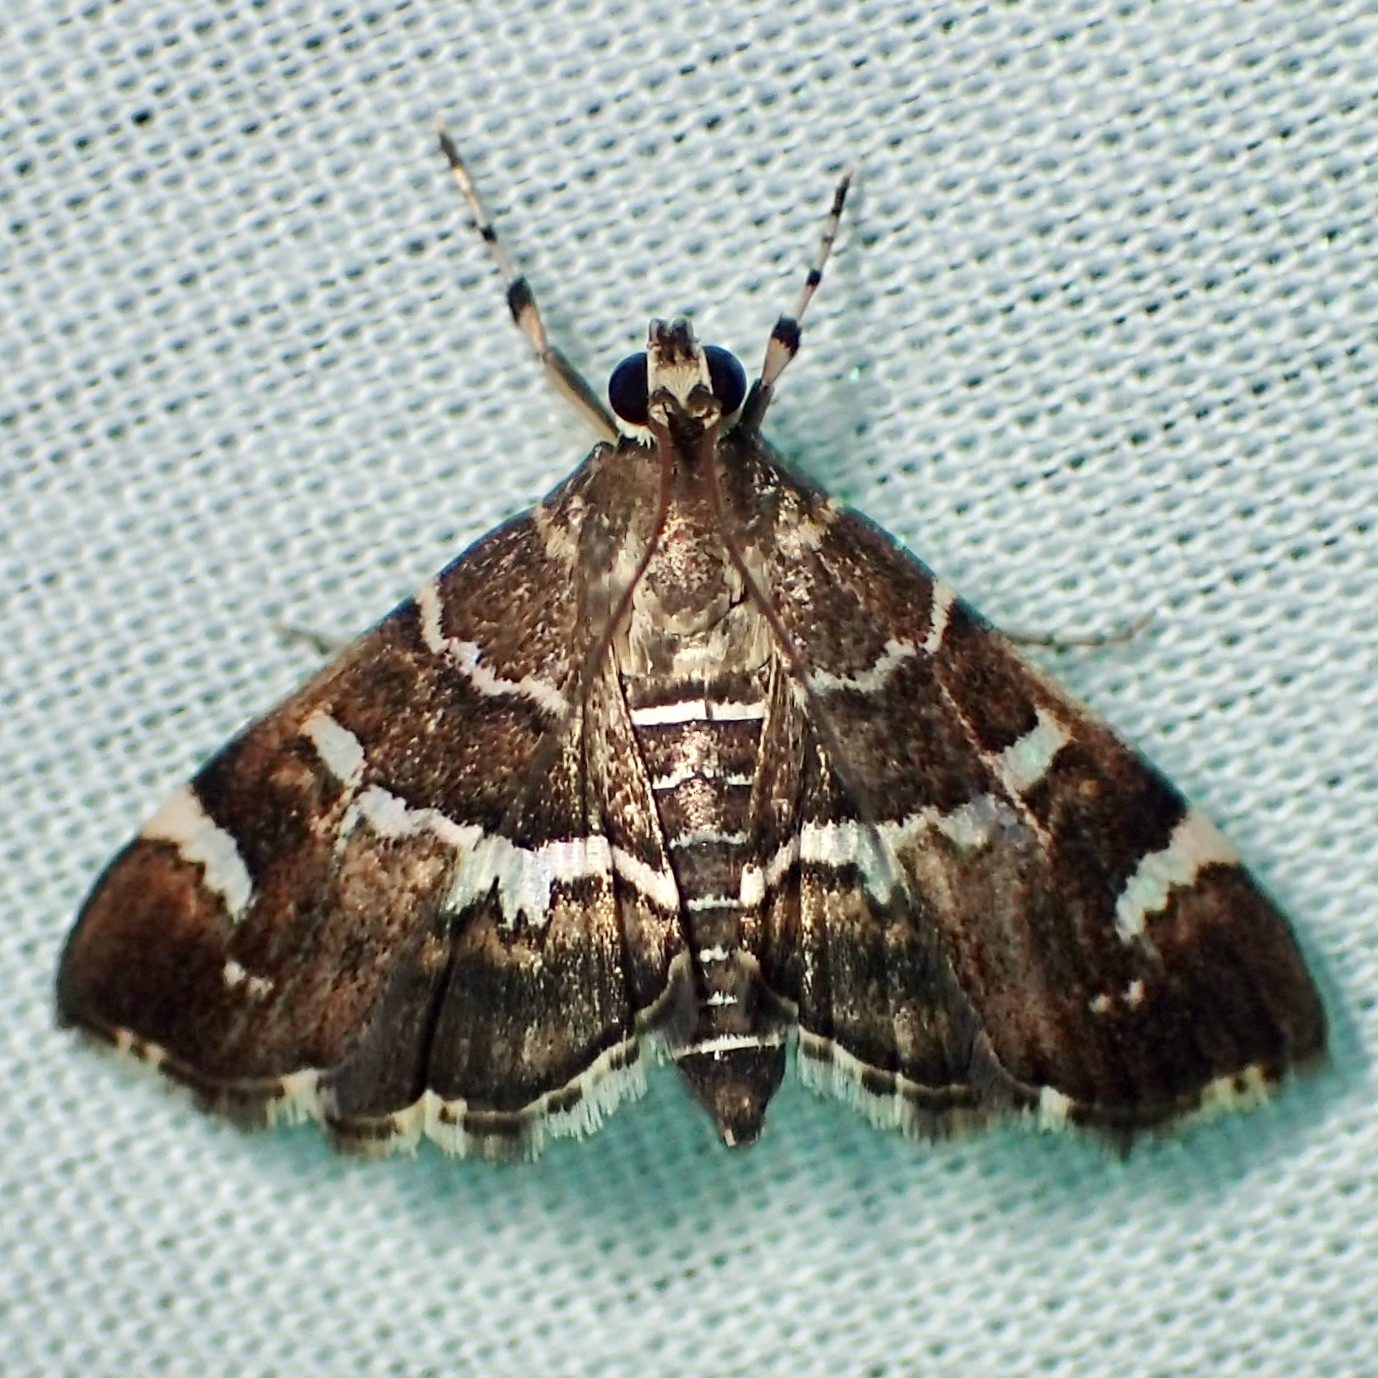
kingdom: Animalia
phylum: Arthropoda
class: Insecta
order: Lepidoptera
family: Crambidae
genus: Hymenia
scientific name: Hymenia perspectalis
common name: Spotted beet webworm
